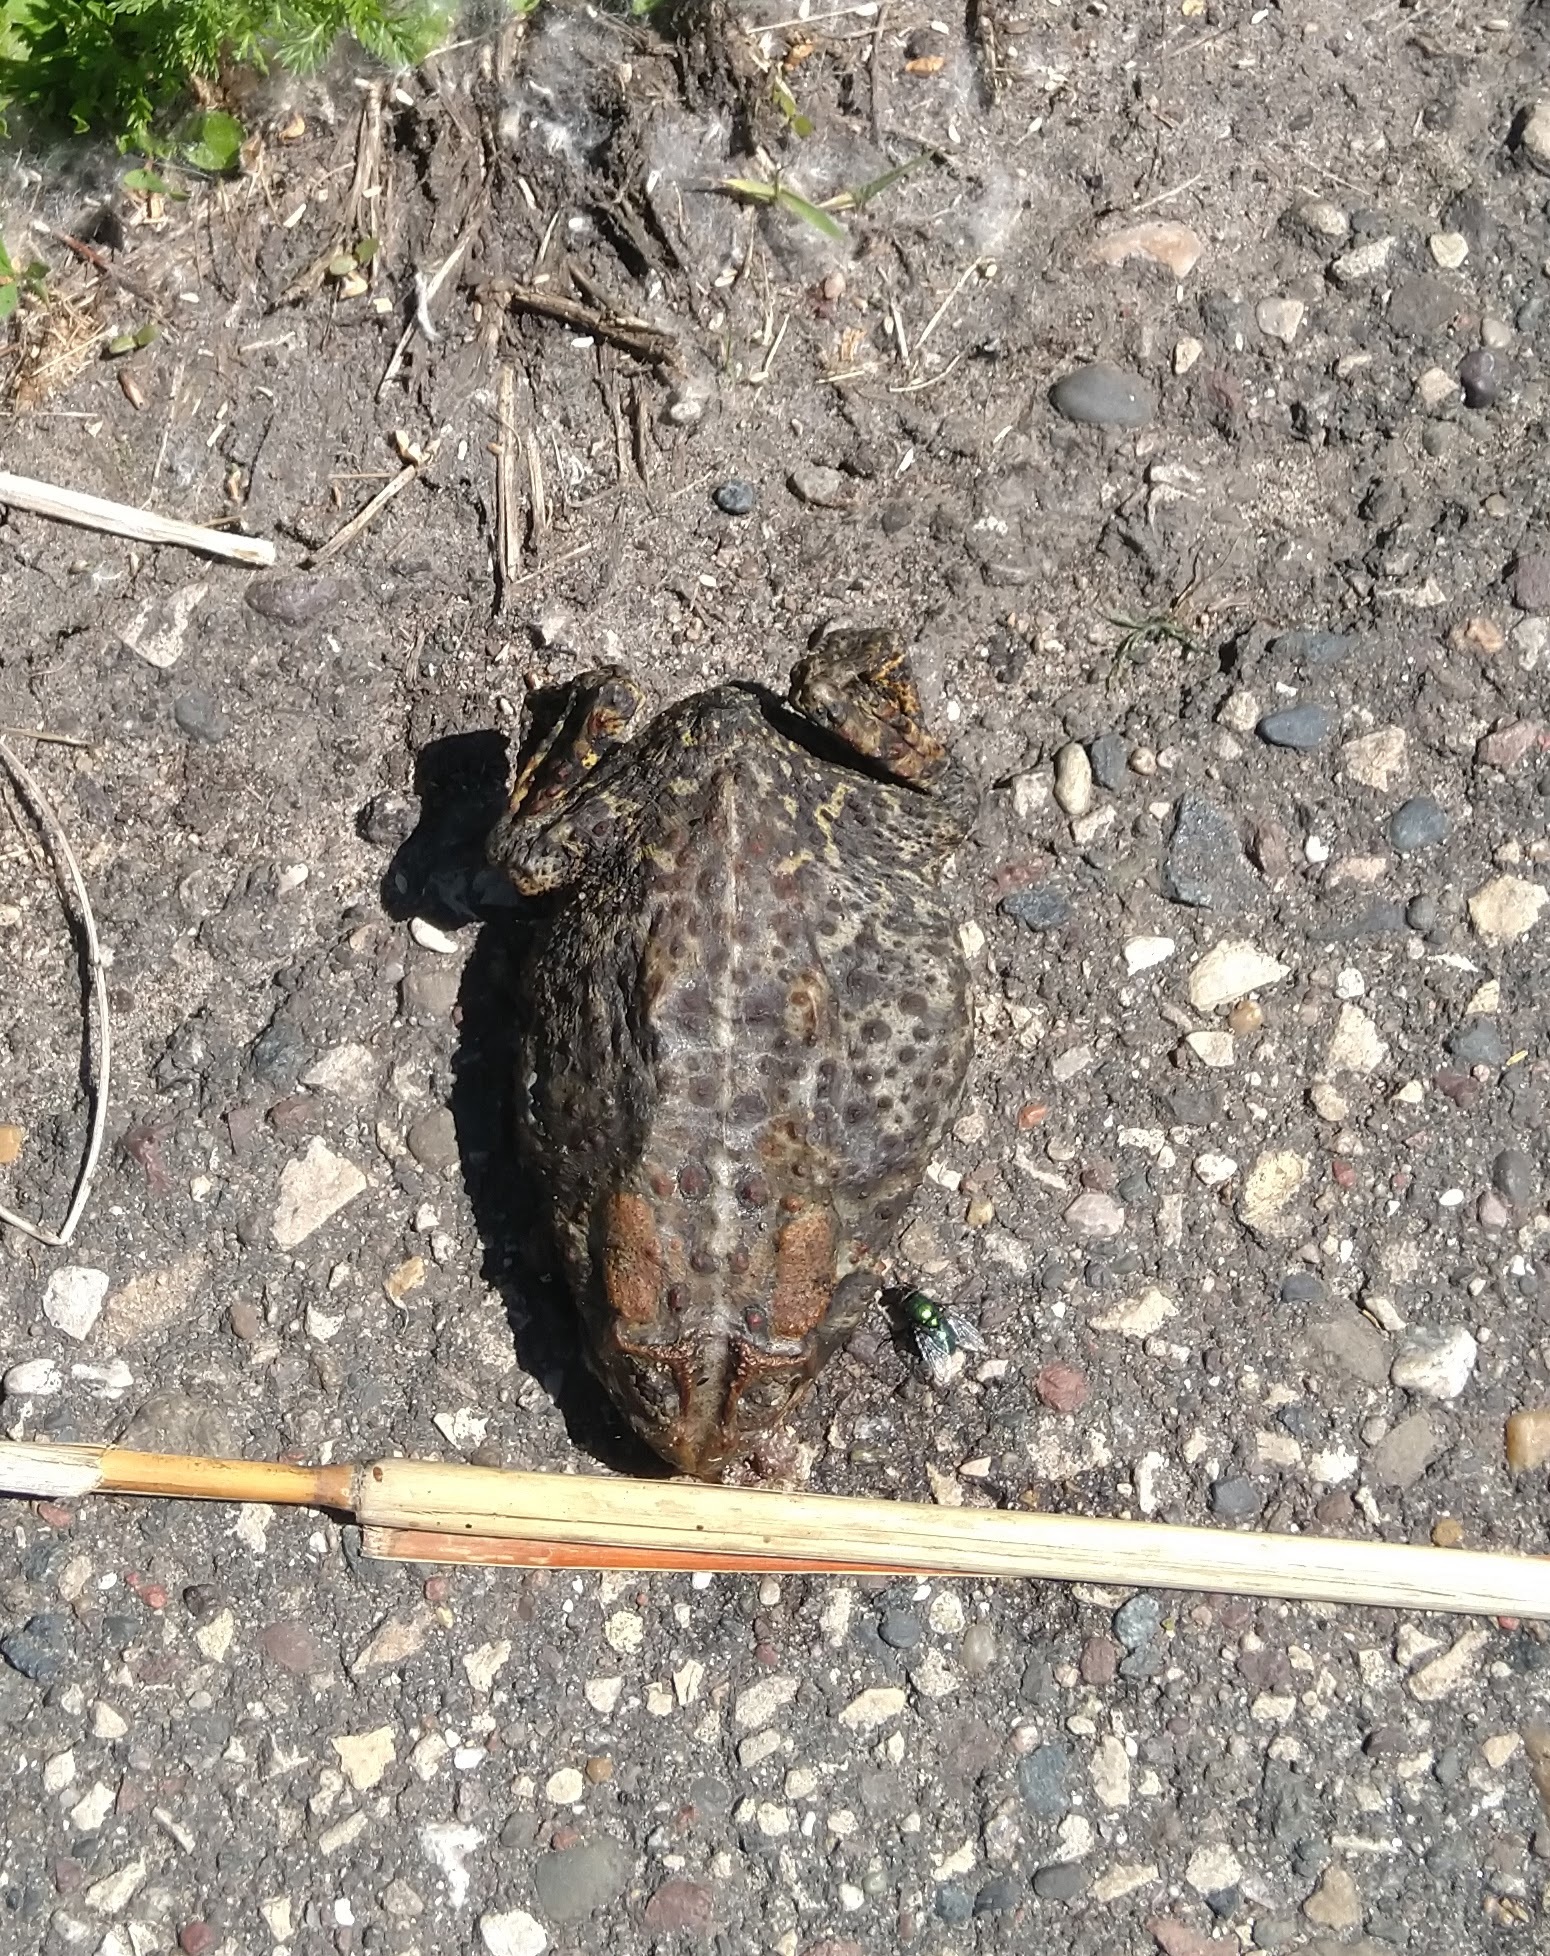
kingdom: Animalia
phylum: Chordata
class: Amphibia
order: Anura
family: Bufonidae
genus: Anaxyrus
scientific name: Anaxyrus americanus
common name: American toad
